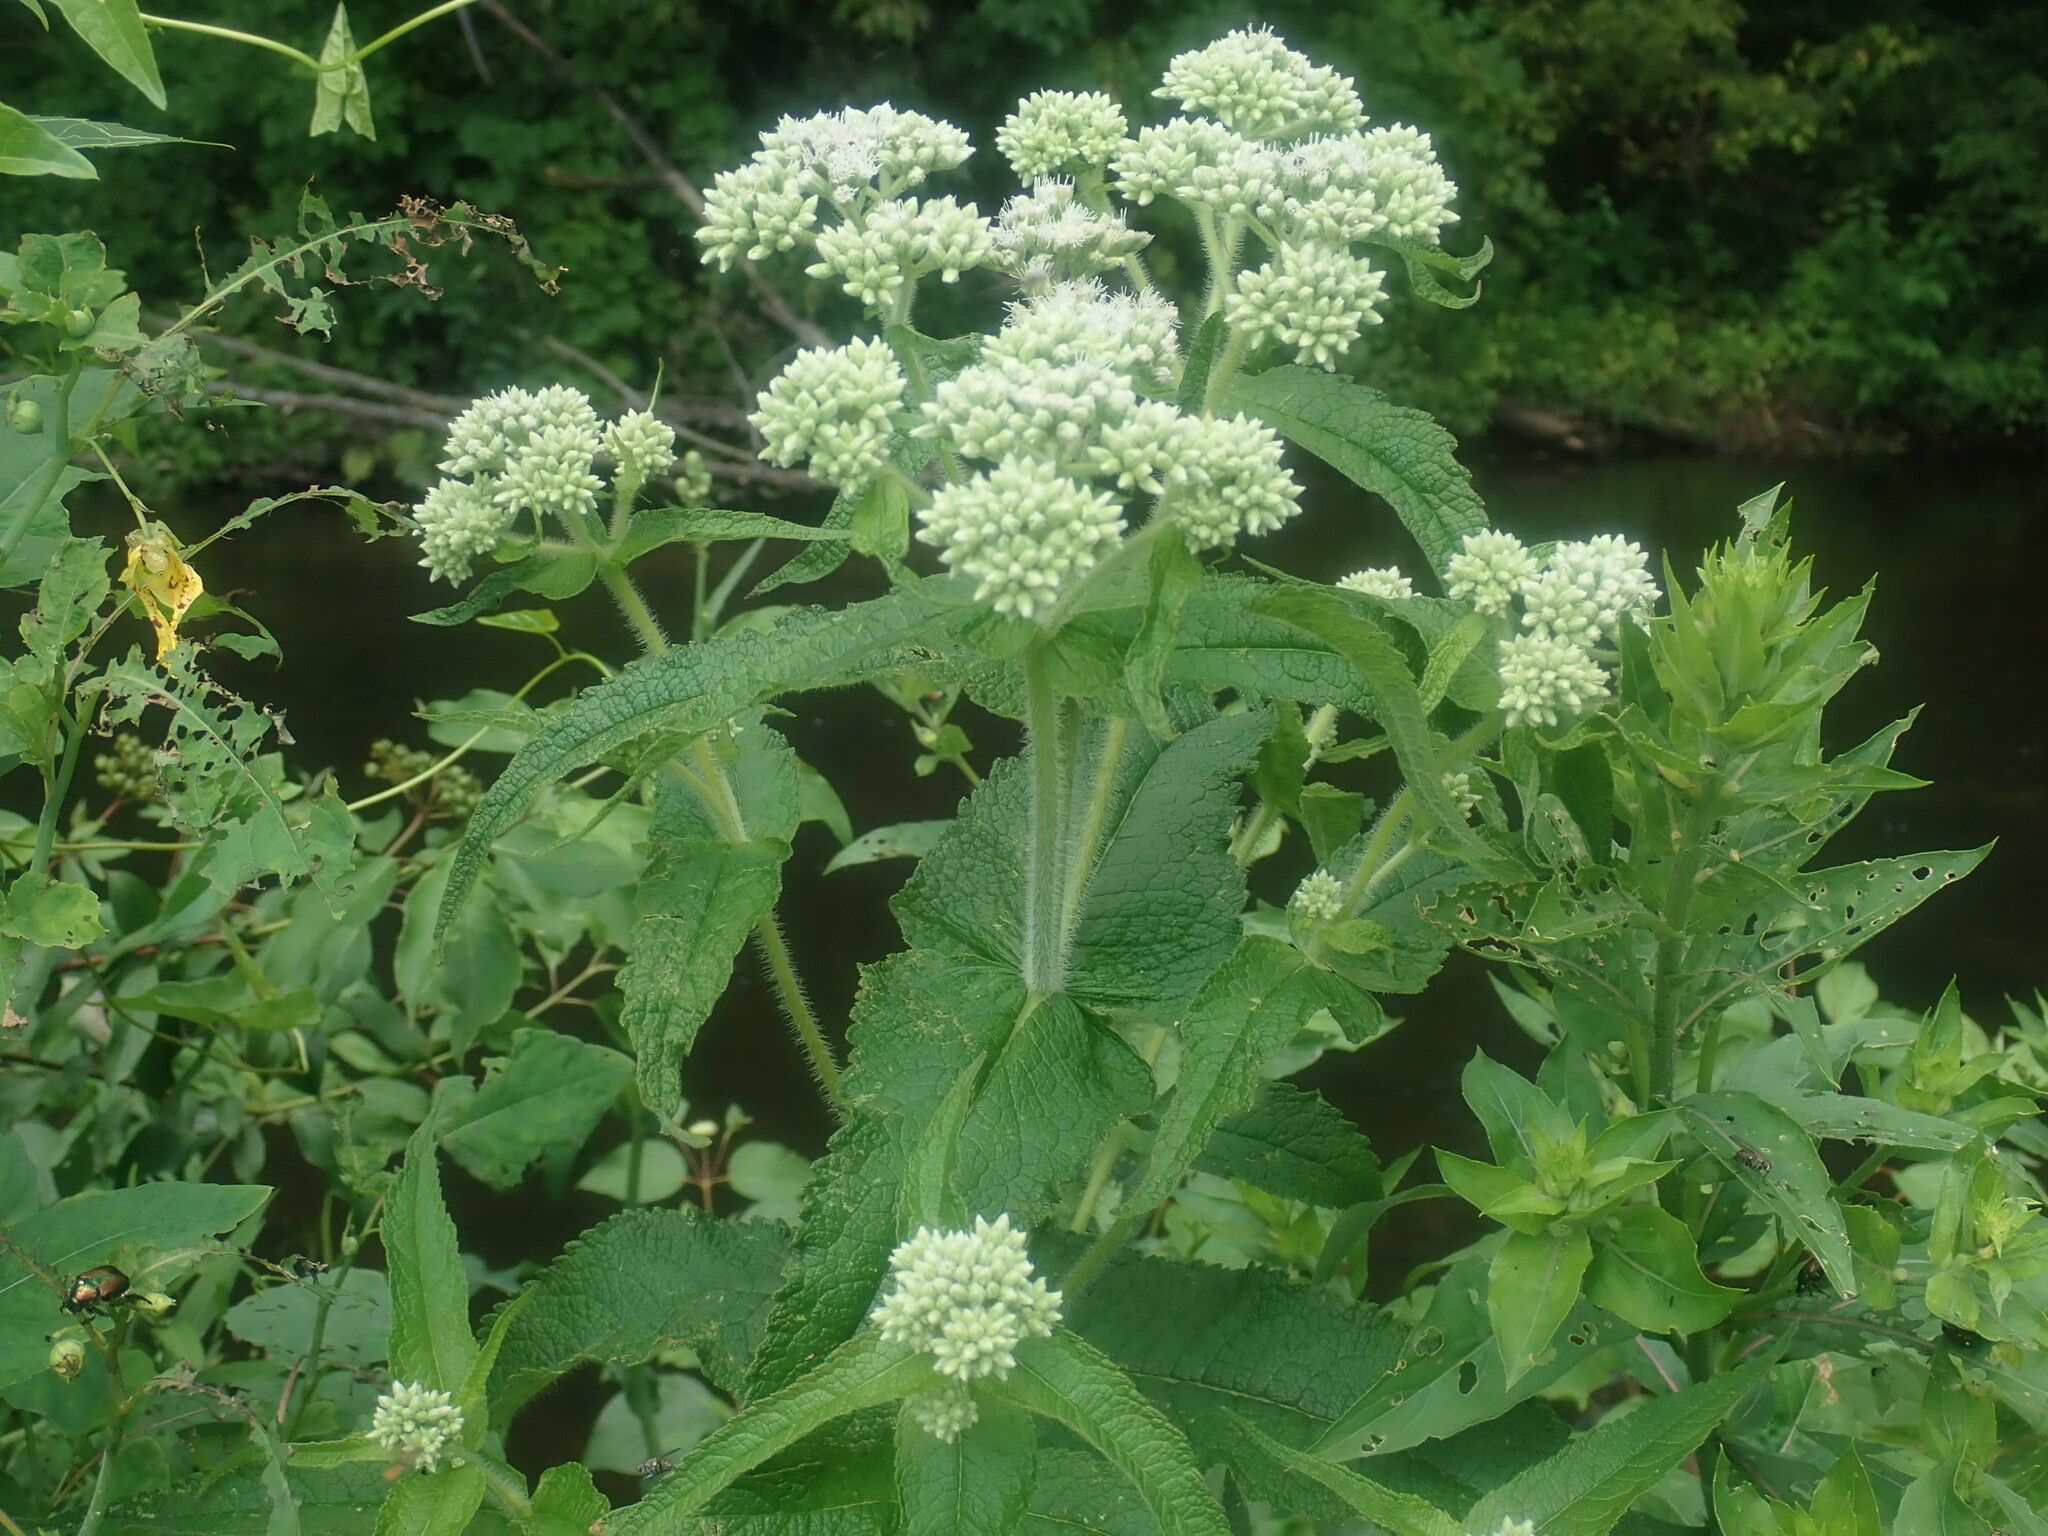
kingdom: Plantae
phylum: Tracheophyta
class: Magnoliopsida
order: Asterales
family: Asteraceae
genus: Eupatorium
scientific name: Eupatorium perfoliatum
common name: Boneset
